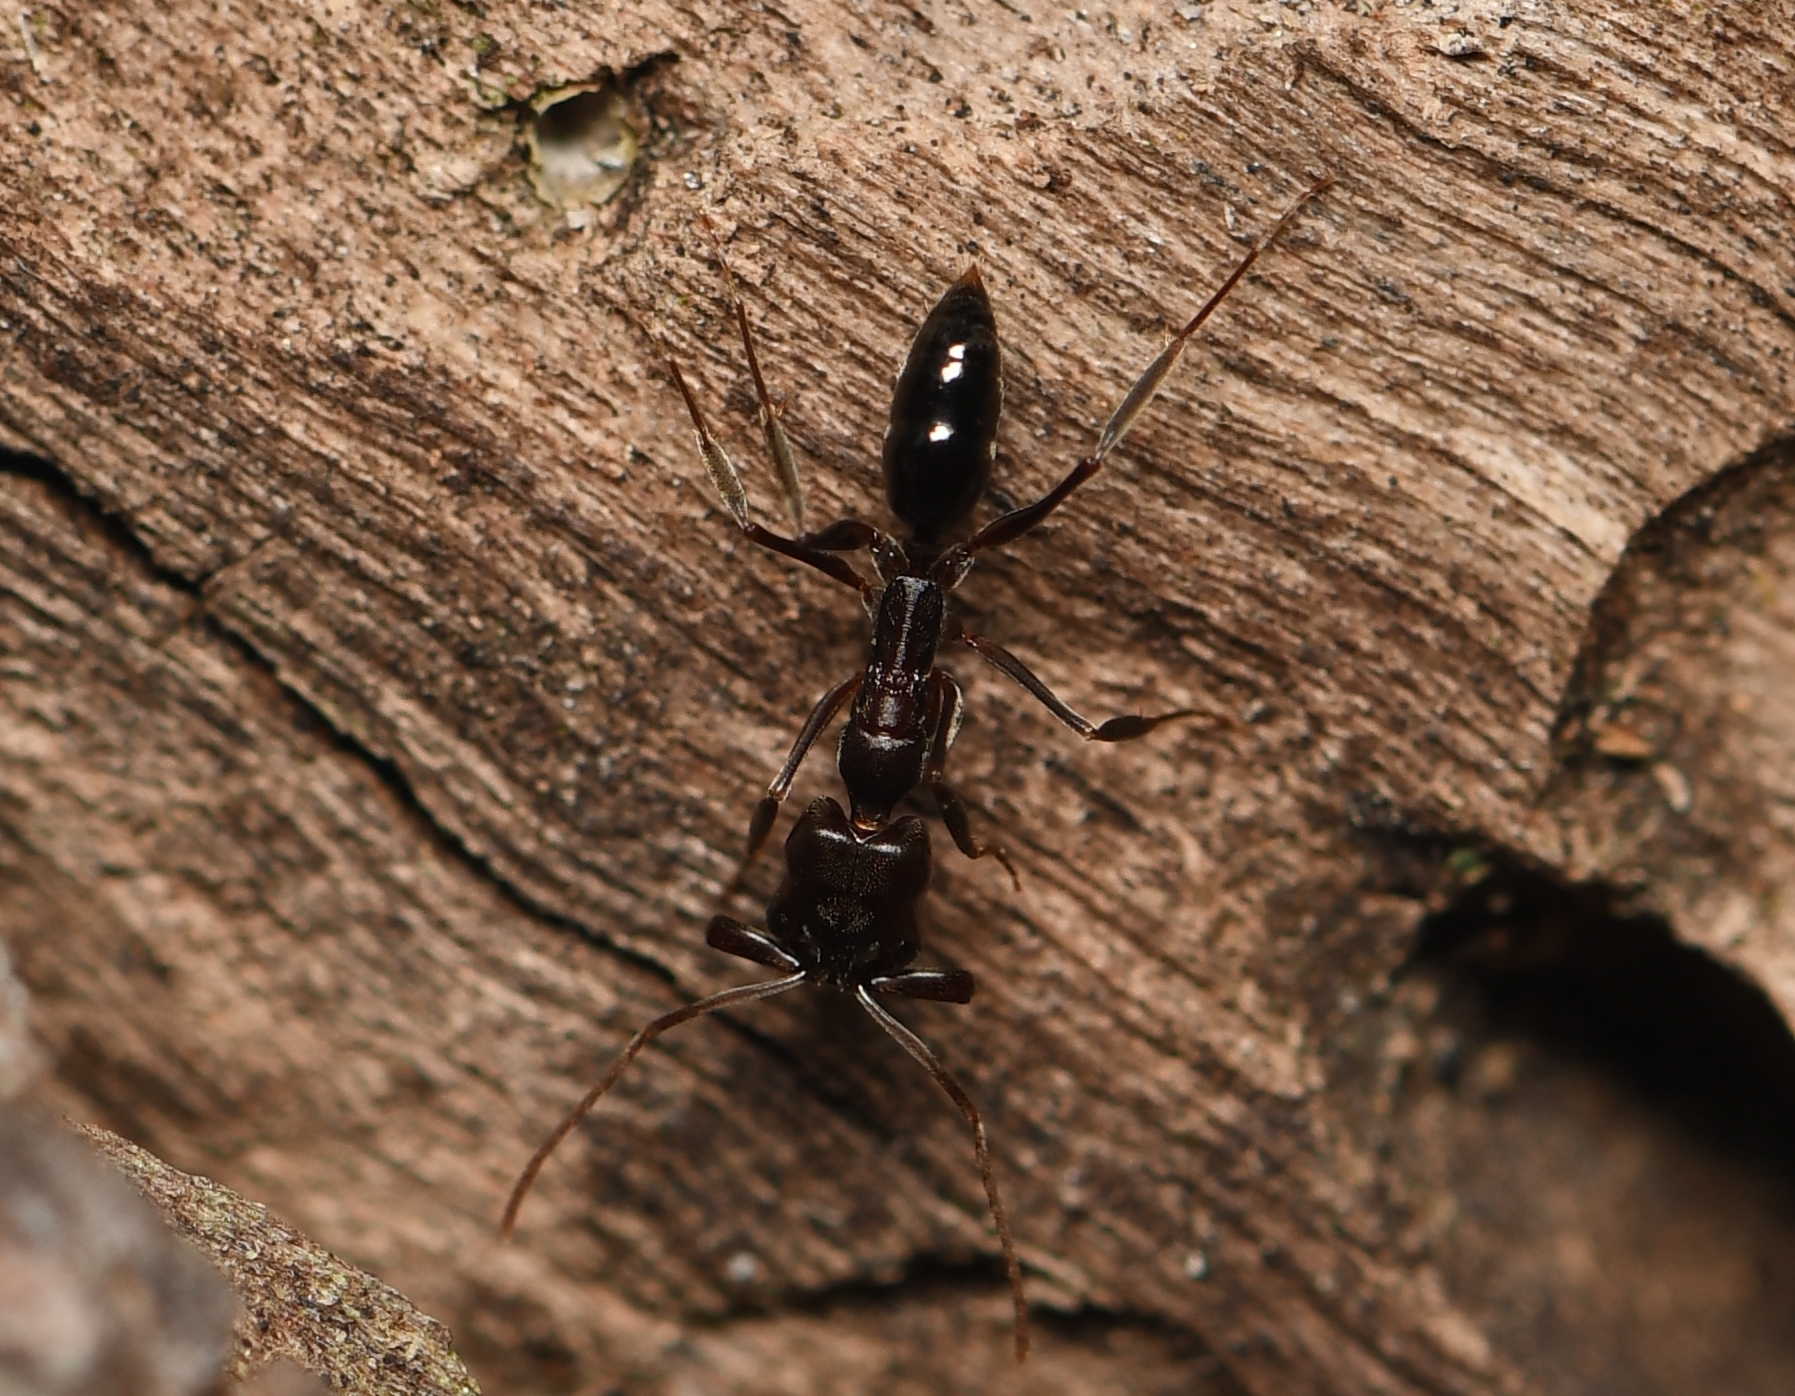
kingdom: Animalia
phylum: Arthropoda
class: Insecta
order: Hymenoptera
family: Formicidae
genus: Odontomachus
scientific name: Odontomachus brunneus
